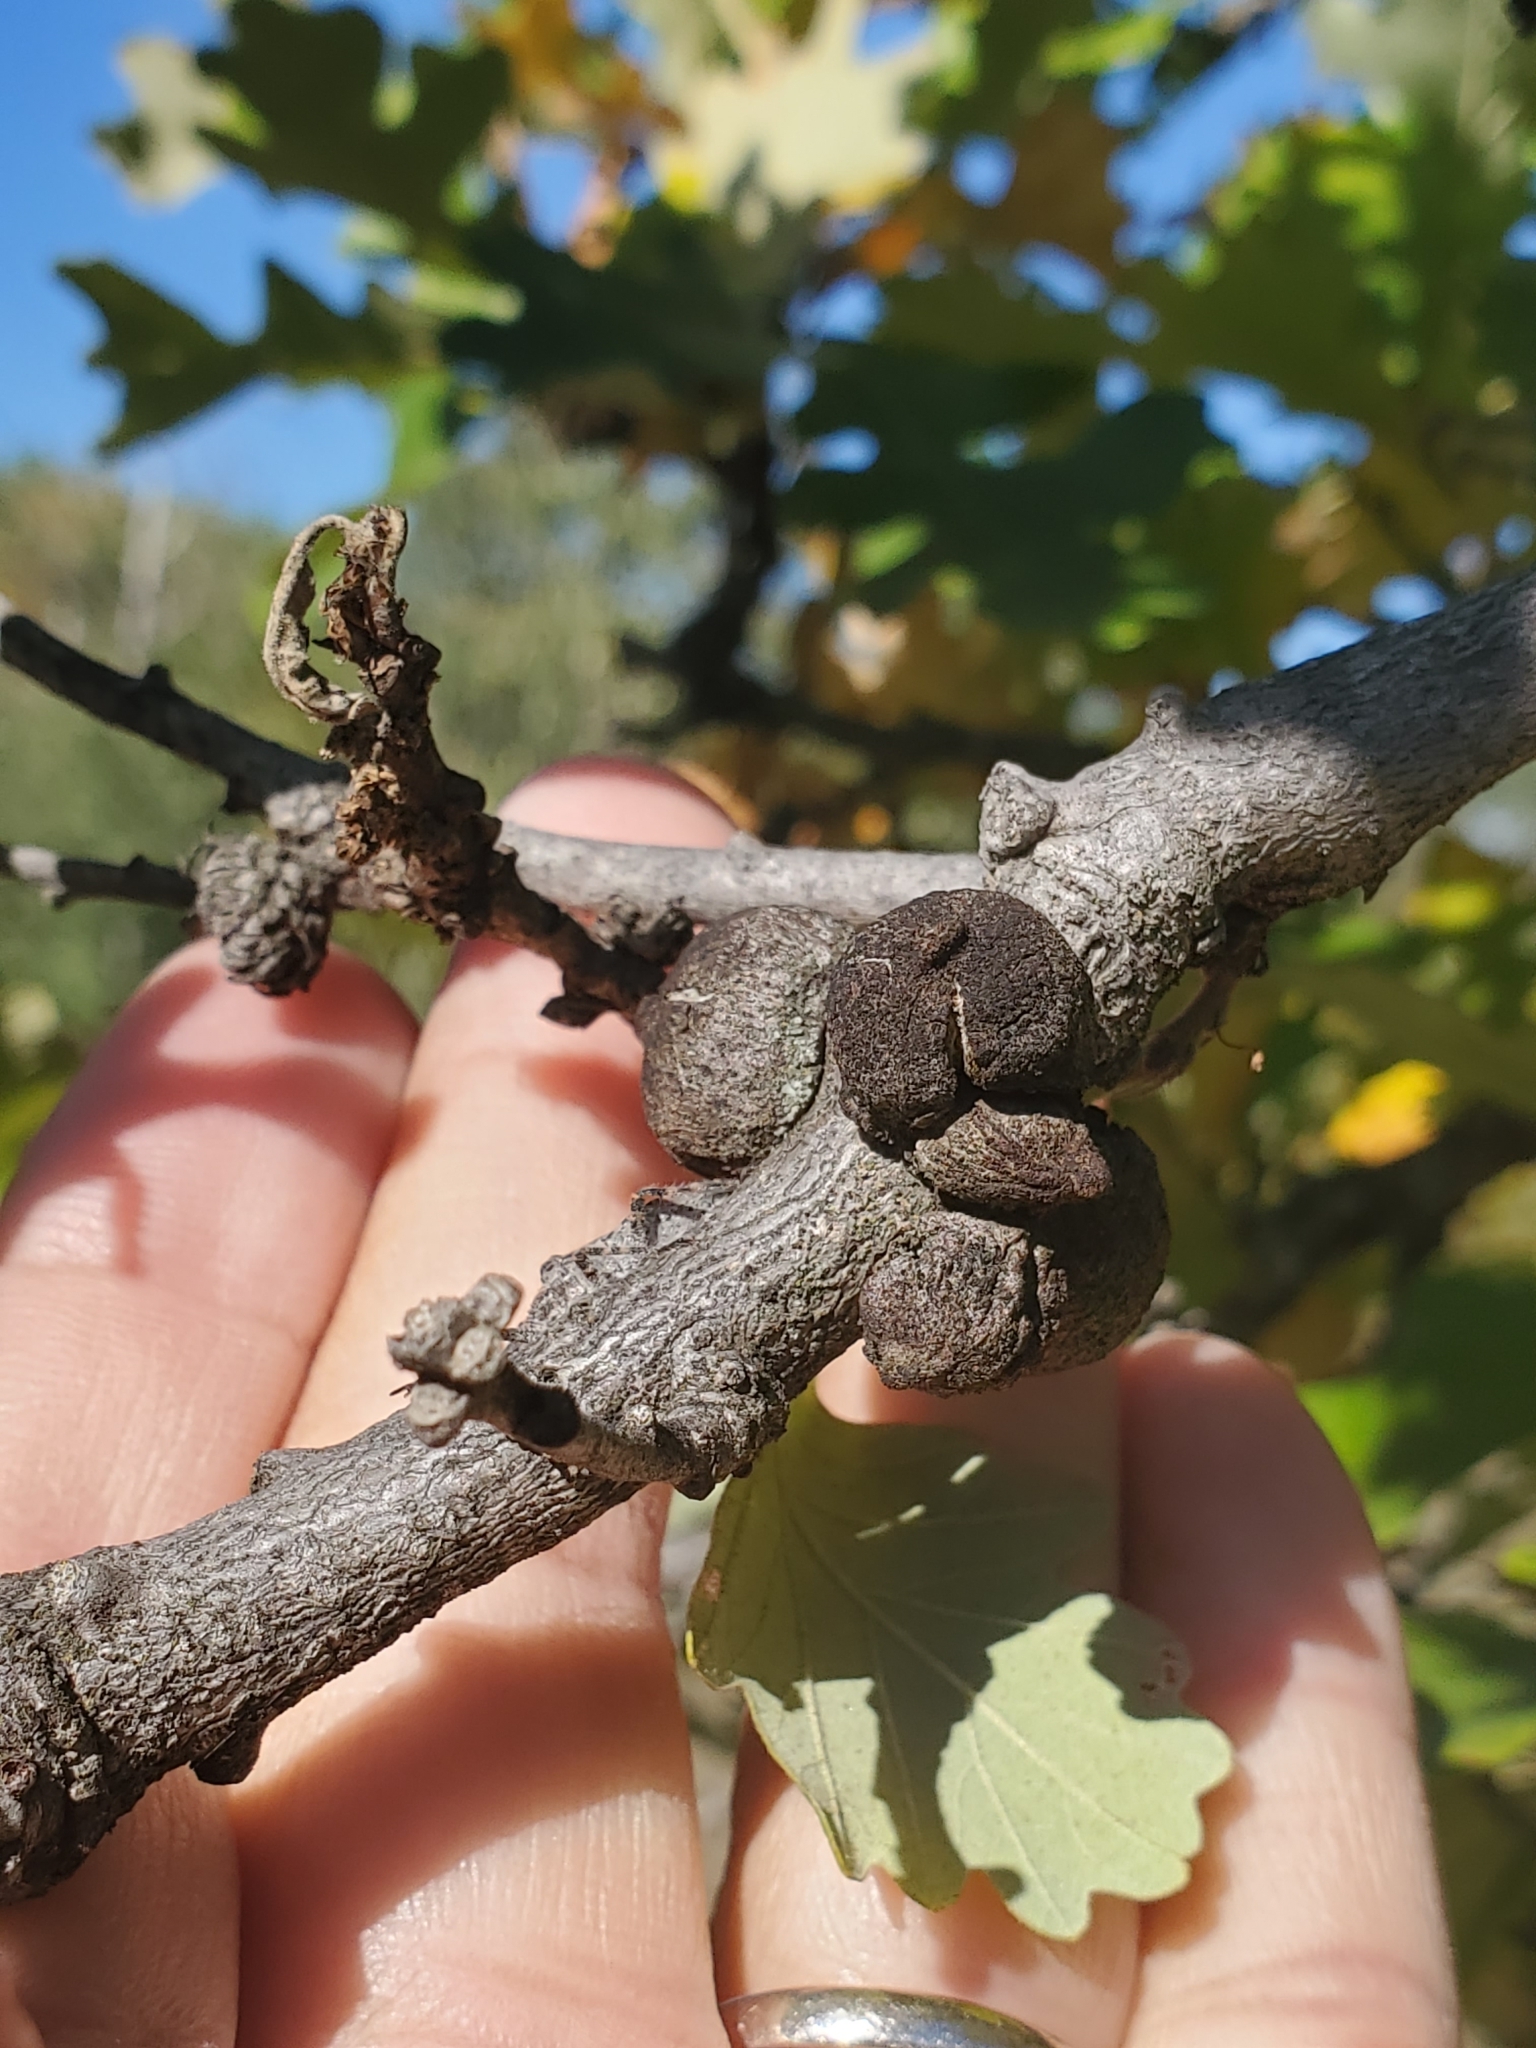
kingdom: Animalia
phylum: Arthropoda
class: Insecta
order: Hymenoptera
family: Cynipidae
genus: Disholcaspis
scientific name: Disholcaspis
